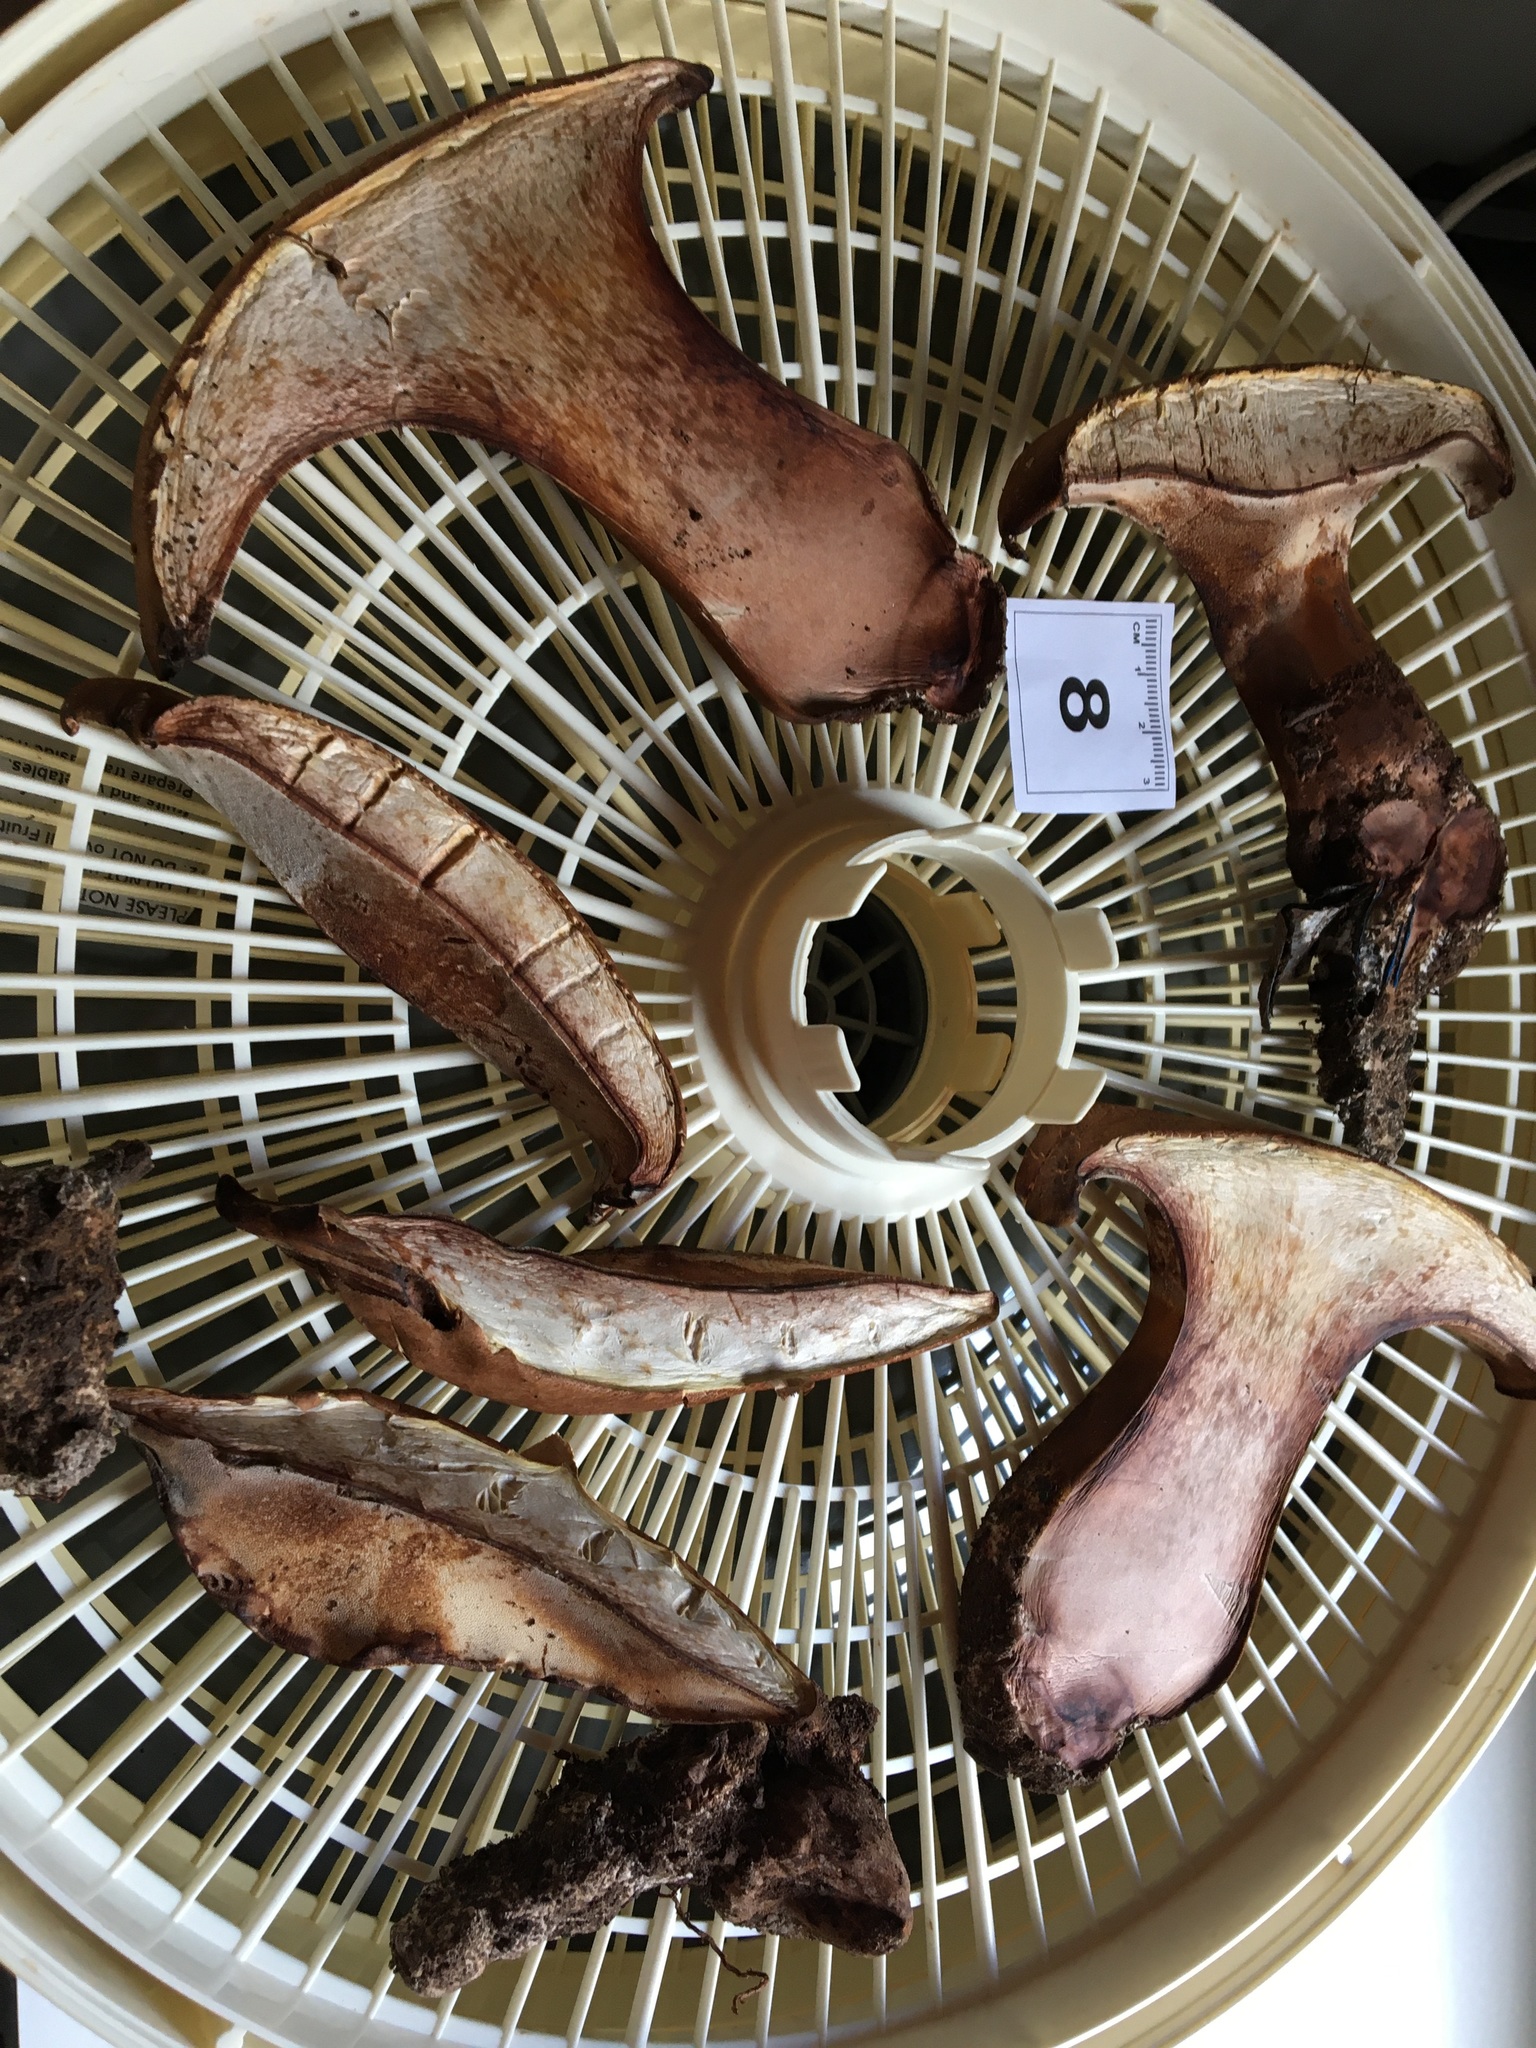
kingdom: Fungi
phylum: Basidiomycota
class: Agaricomycetes
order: Polyporales
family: Fomitopsidaceae
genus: Fomitopsis
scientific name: Fomitopsis
